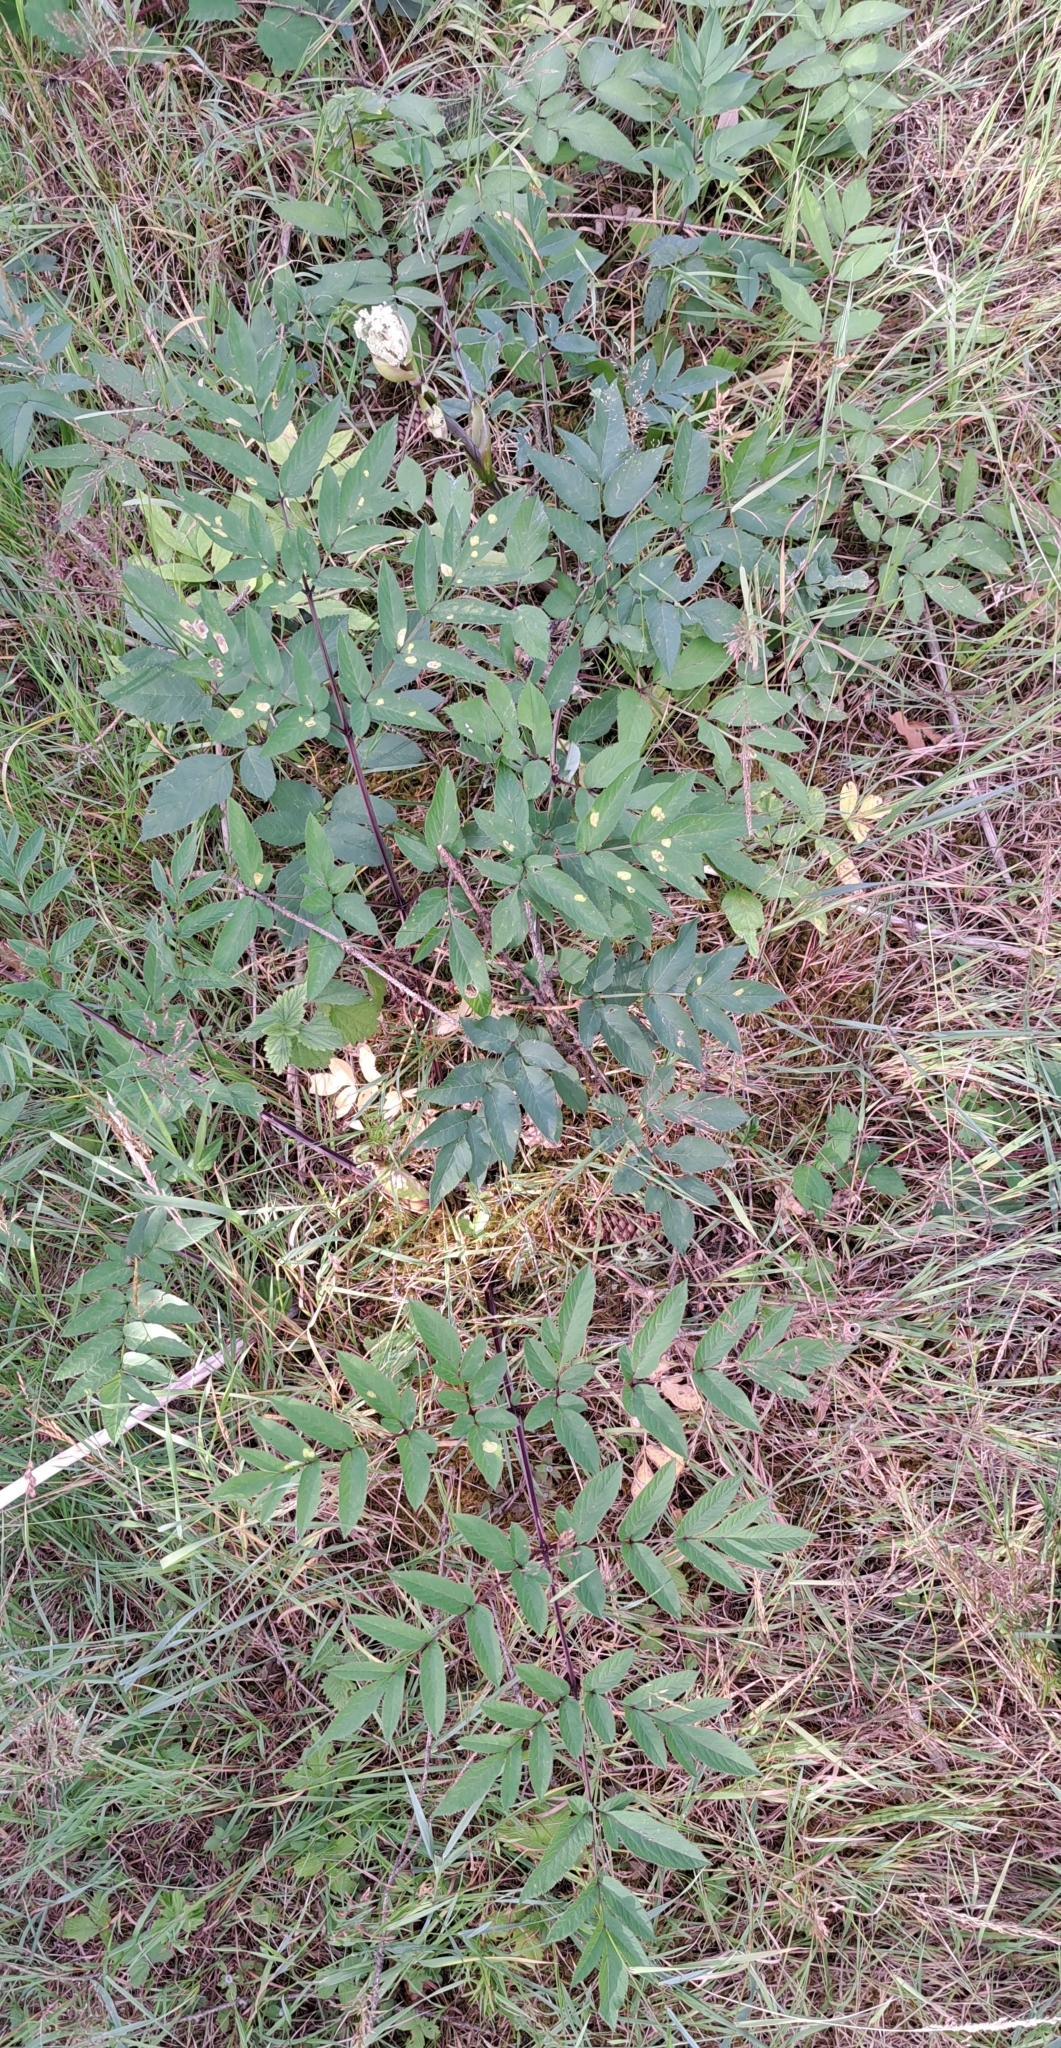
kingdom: Plantae
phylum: Tracheophyta
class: Magnoliopsida
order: Apiales
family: Apiaceae
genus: Angelica
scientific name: Angelica sylvestris
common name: Wild angelica
